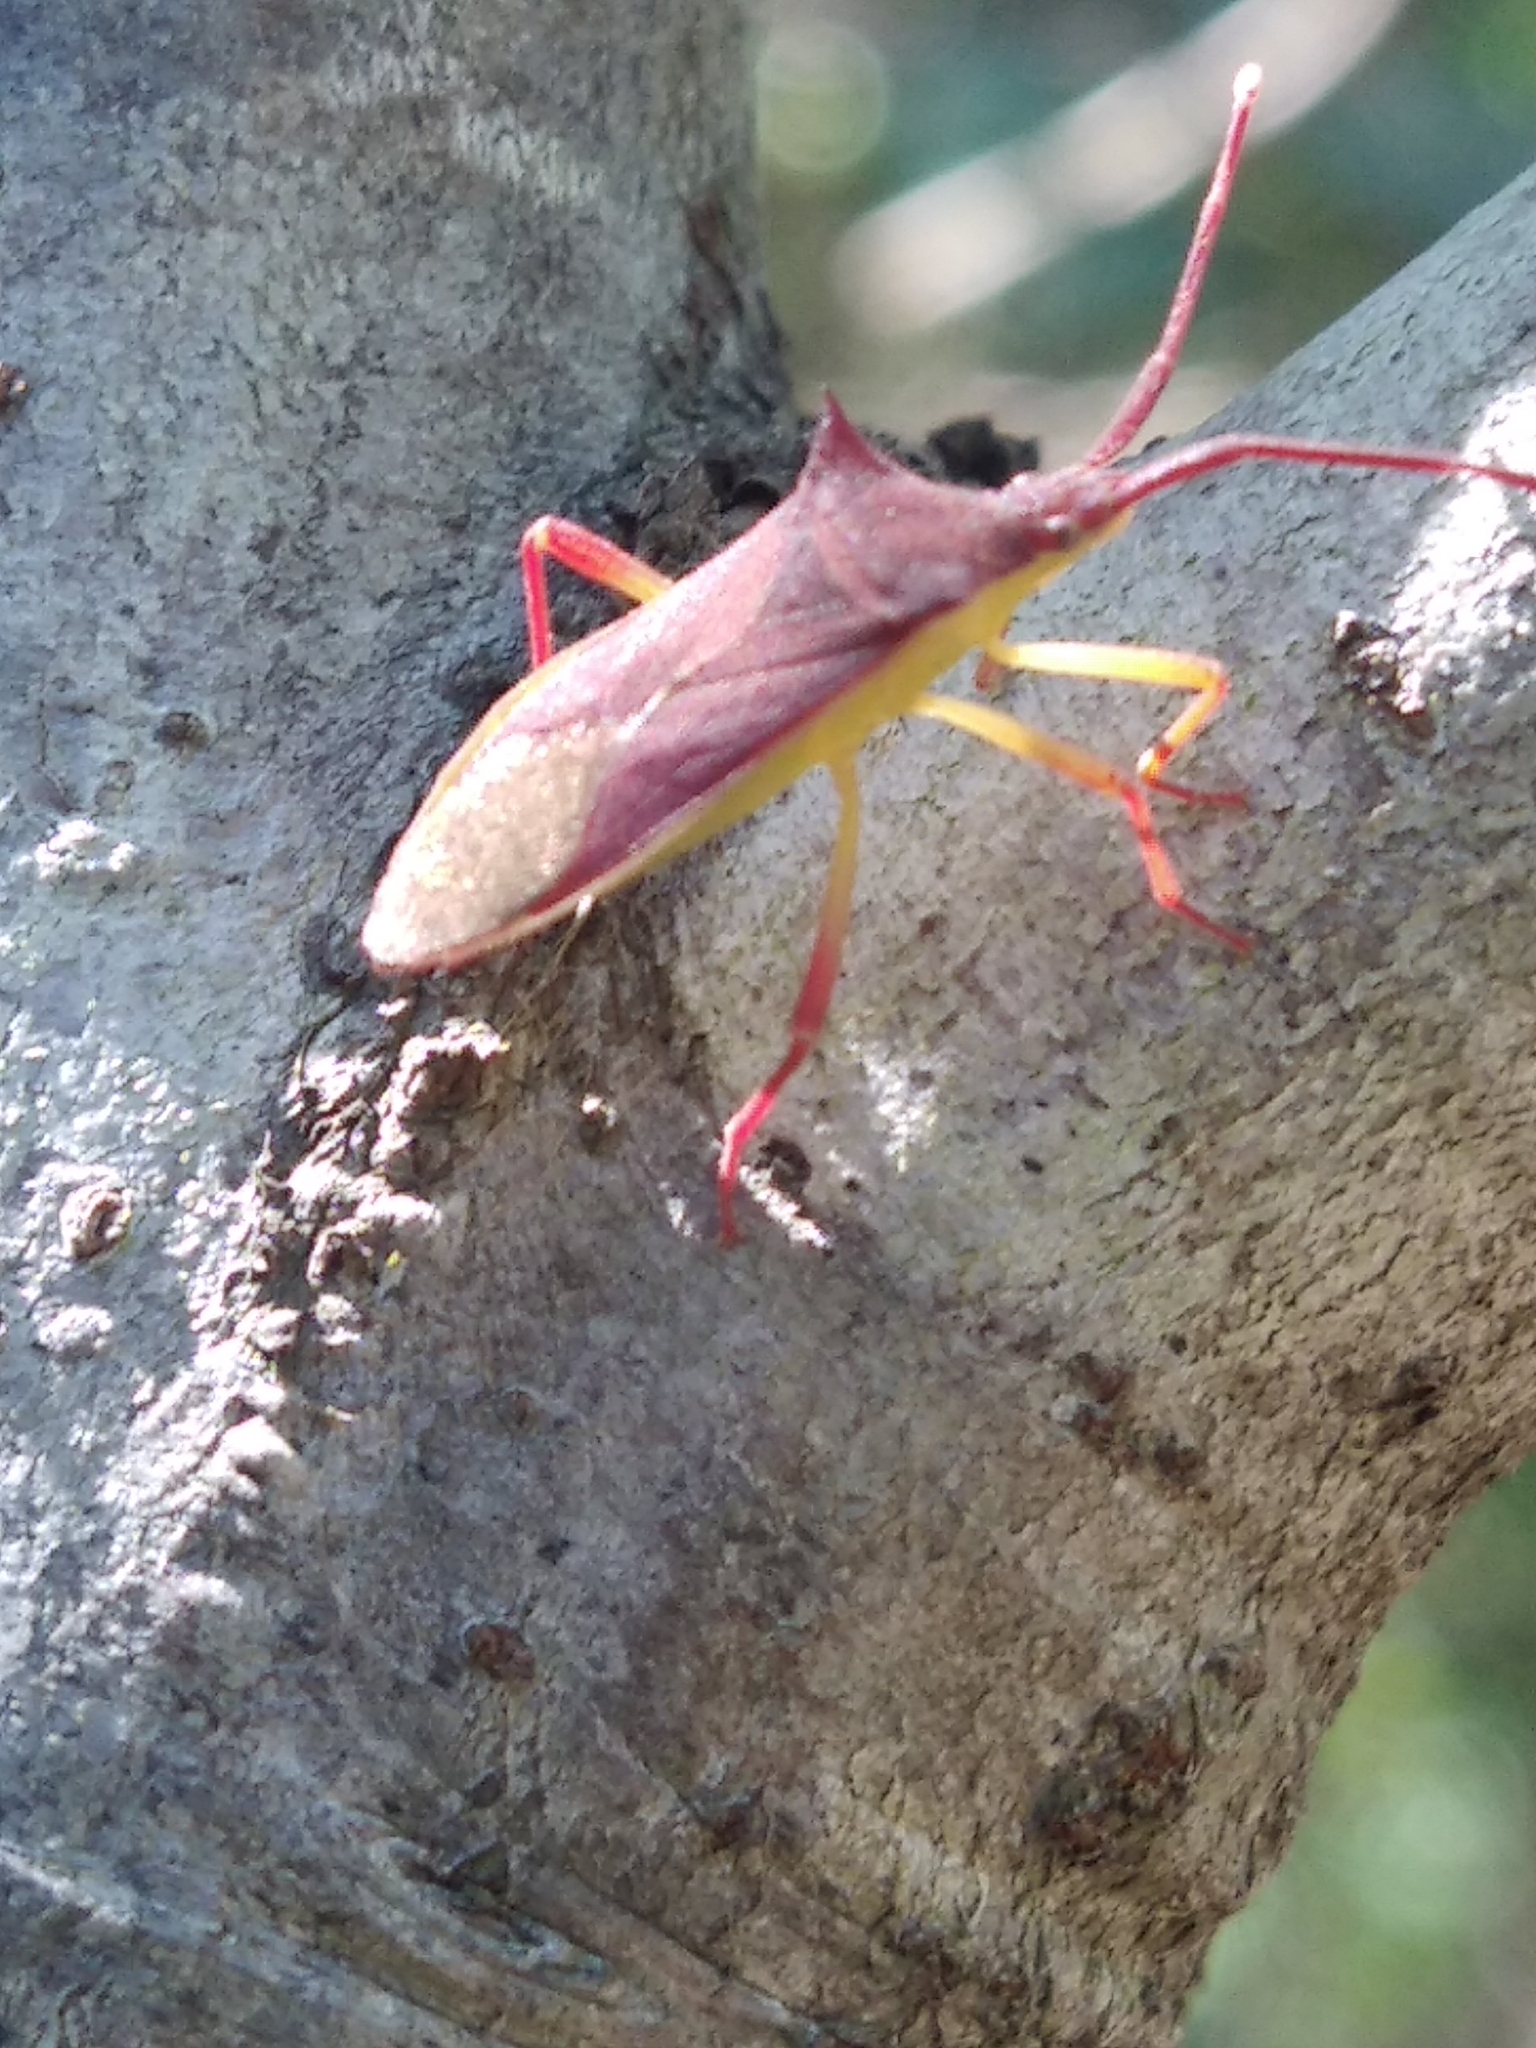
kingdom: Animalia
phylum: Arthropoda
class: Insecta
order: Hemiptera
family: Coreidae
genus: Gonocerus
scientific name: Gonocerus insidiator
